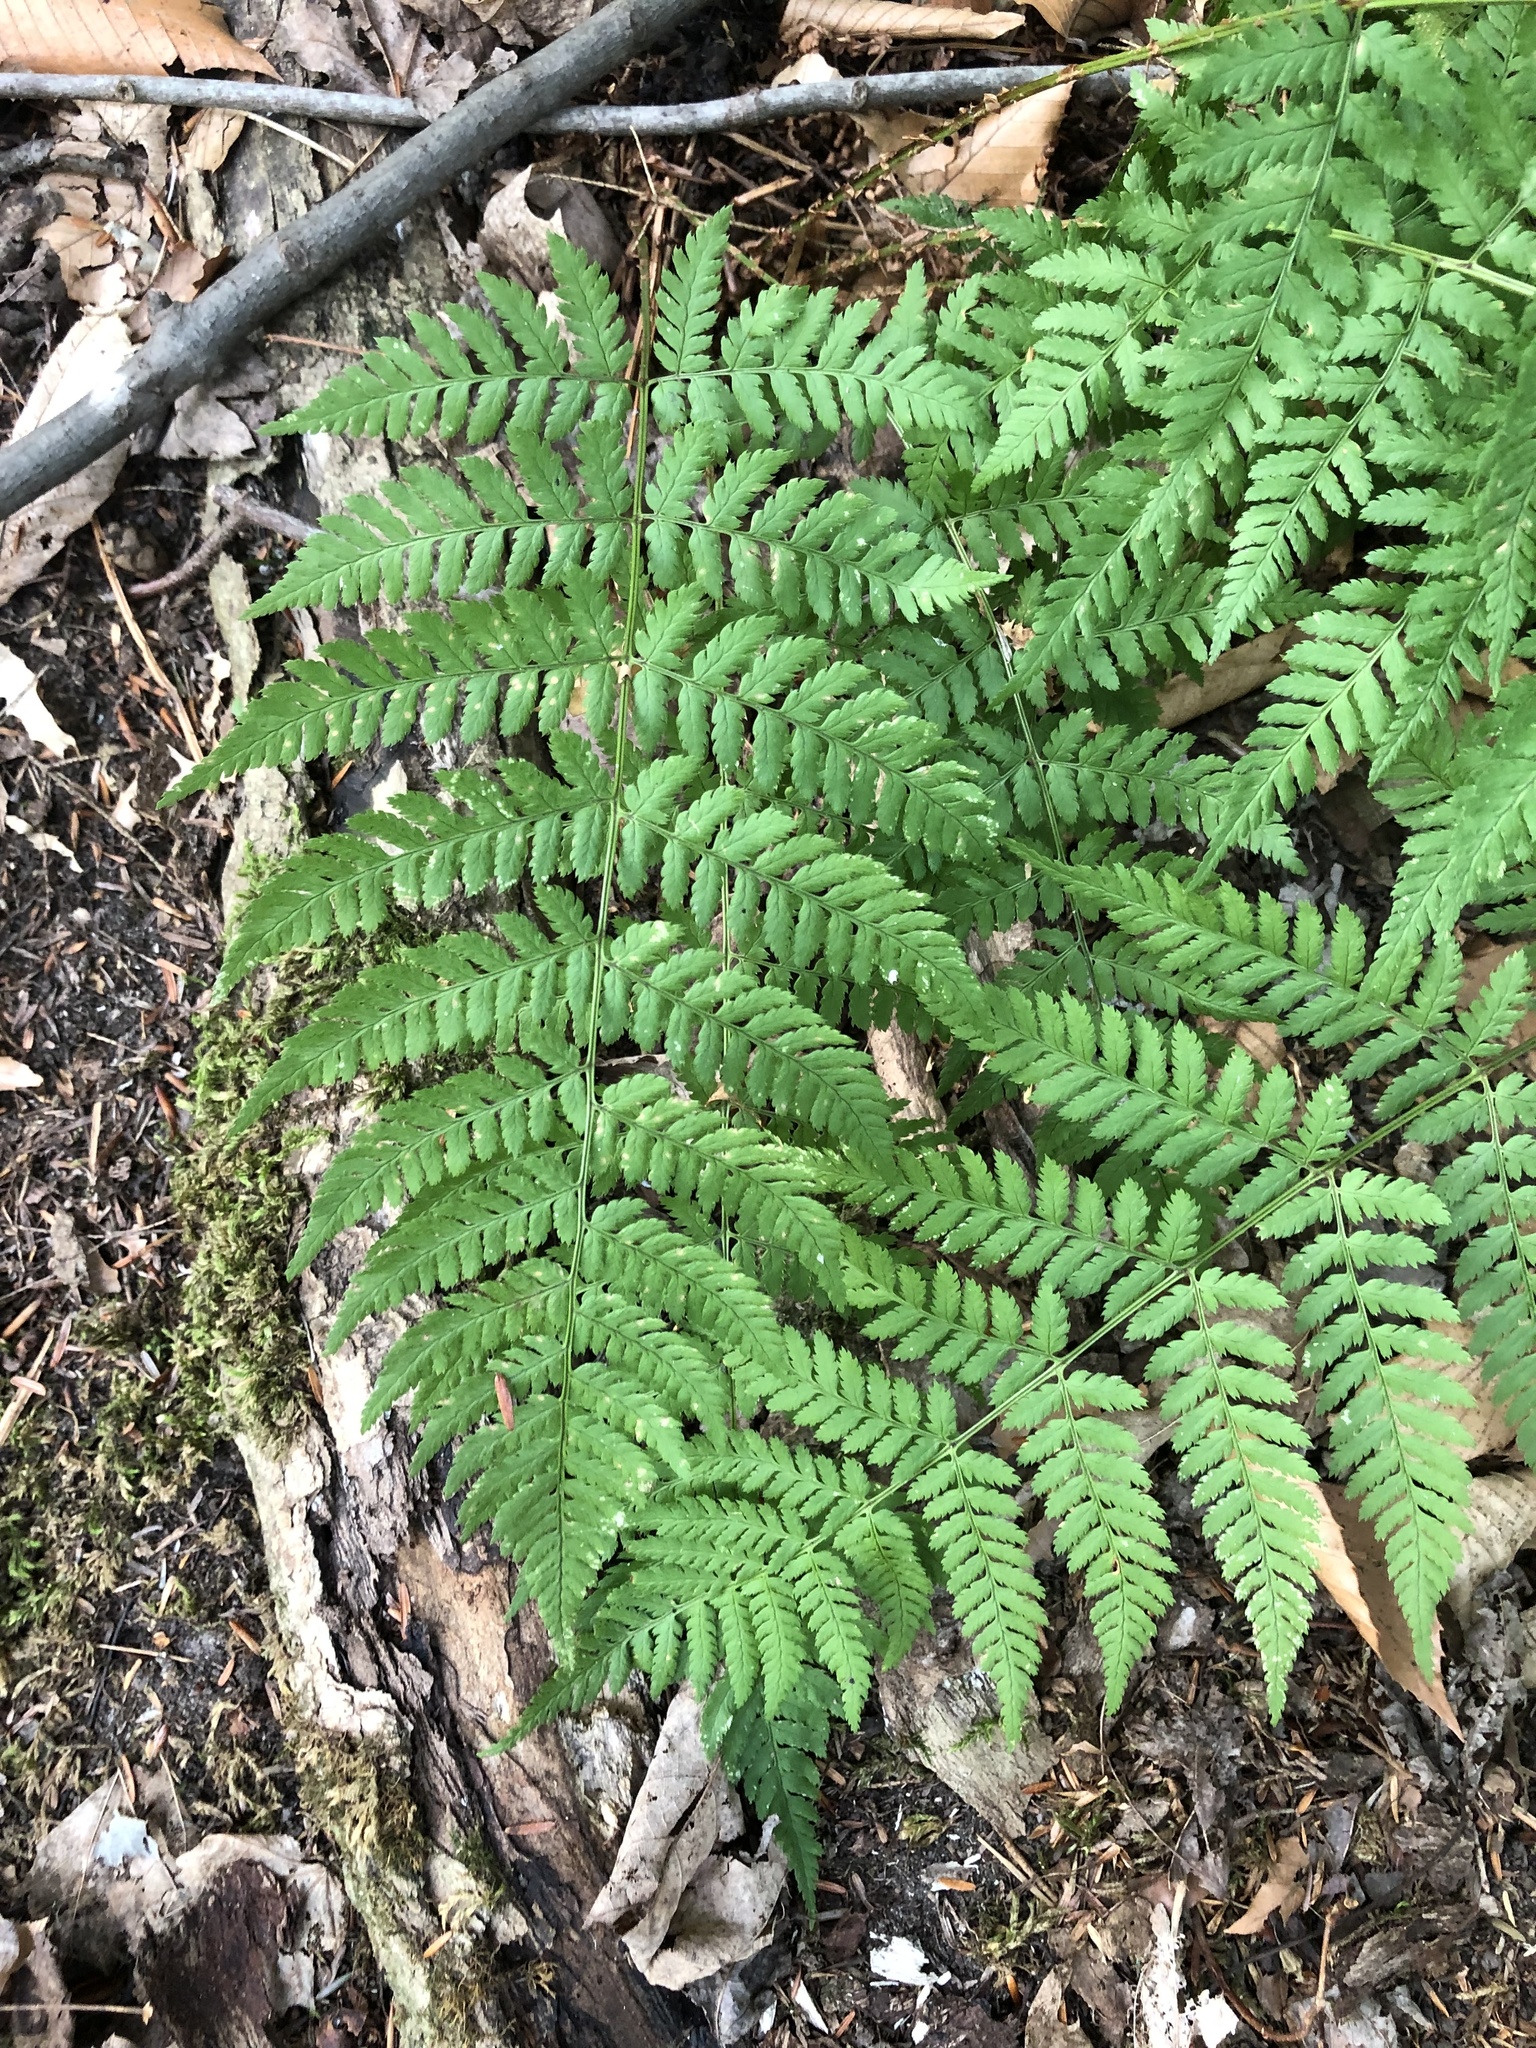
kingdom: Plantae
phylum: Tracheophyta
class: Polypodiopsida
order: Polypodiales
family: Dryopteridaceae
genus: Dryopteris
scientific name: Dryopteris carthusiana
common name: Narrow buckler-fern
